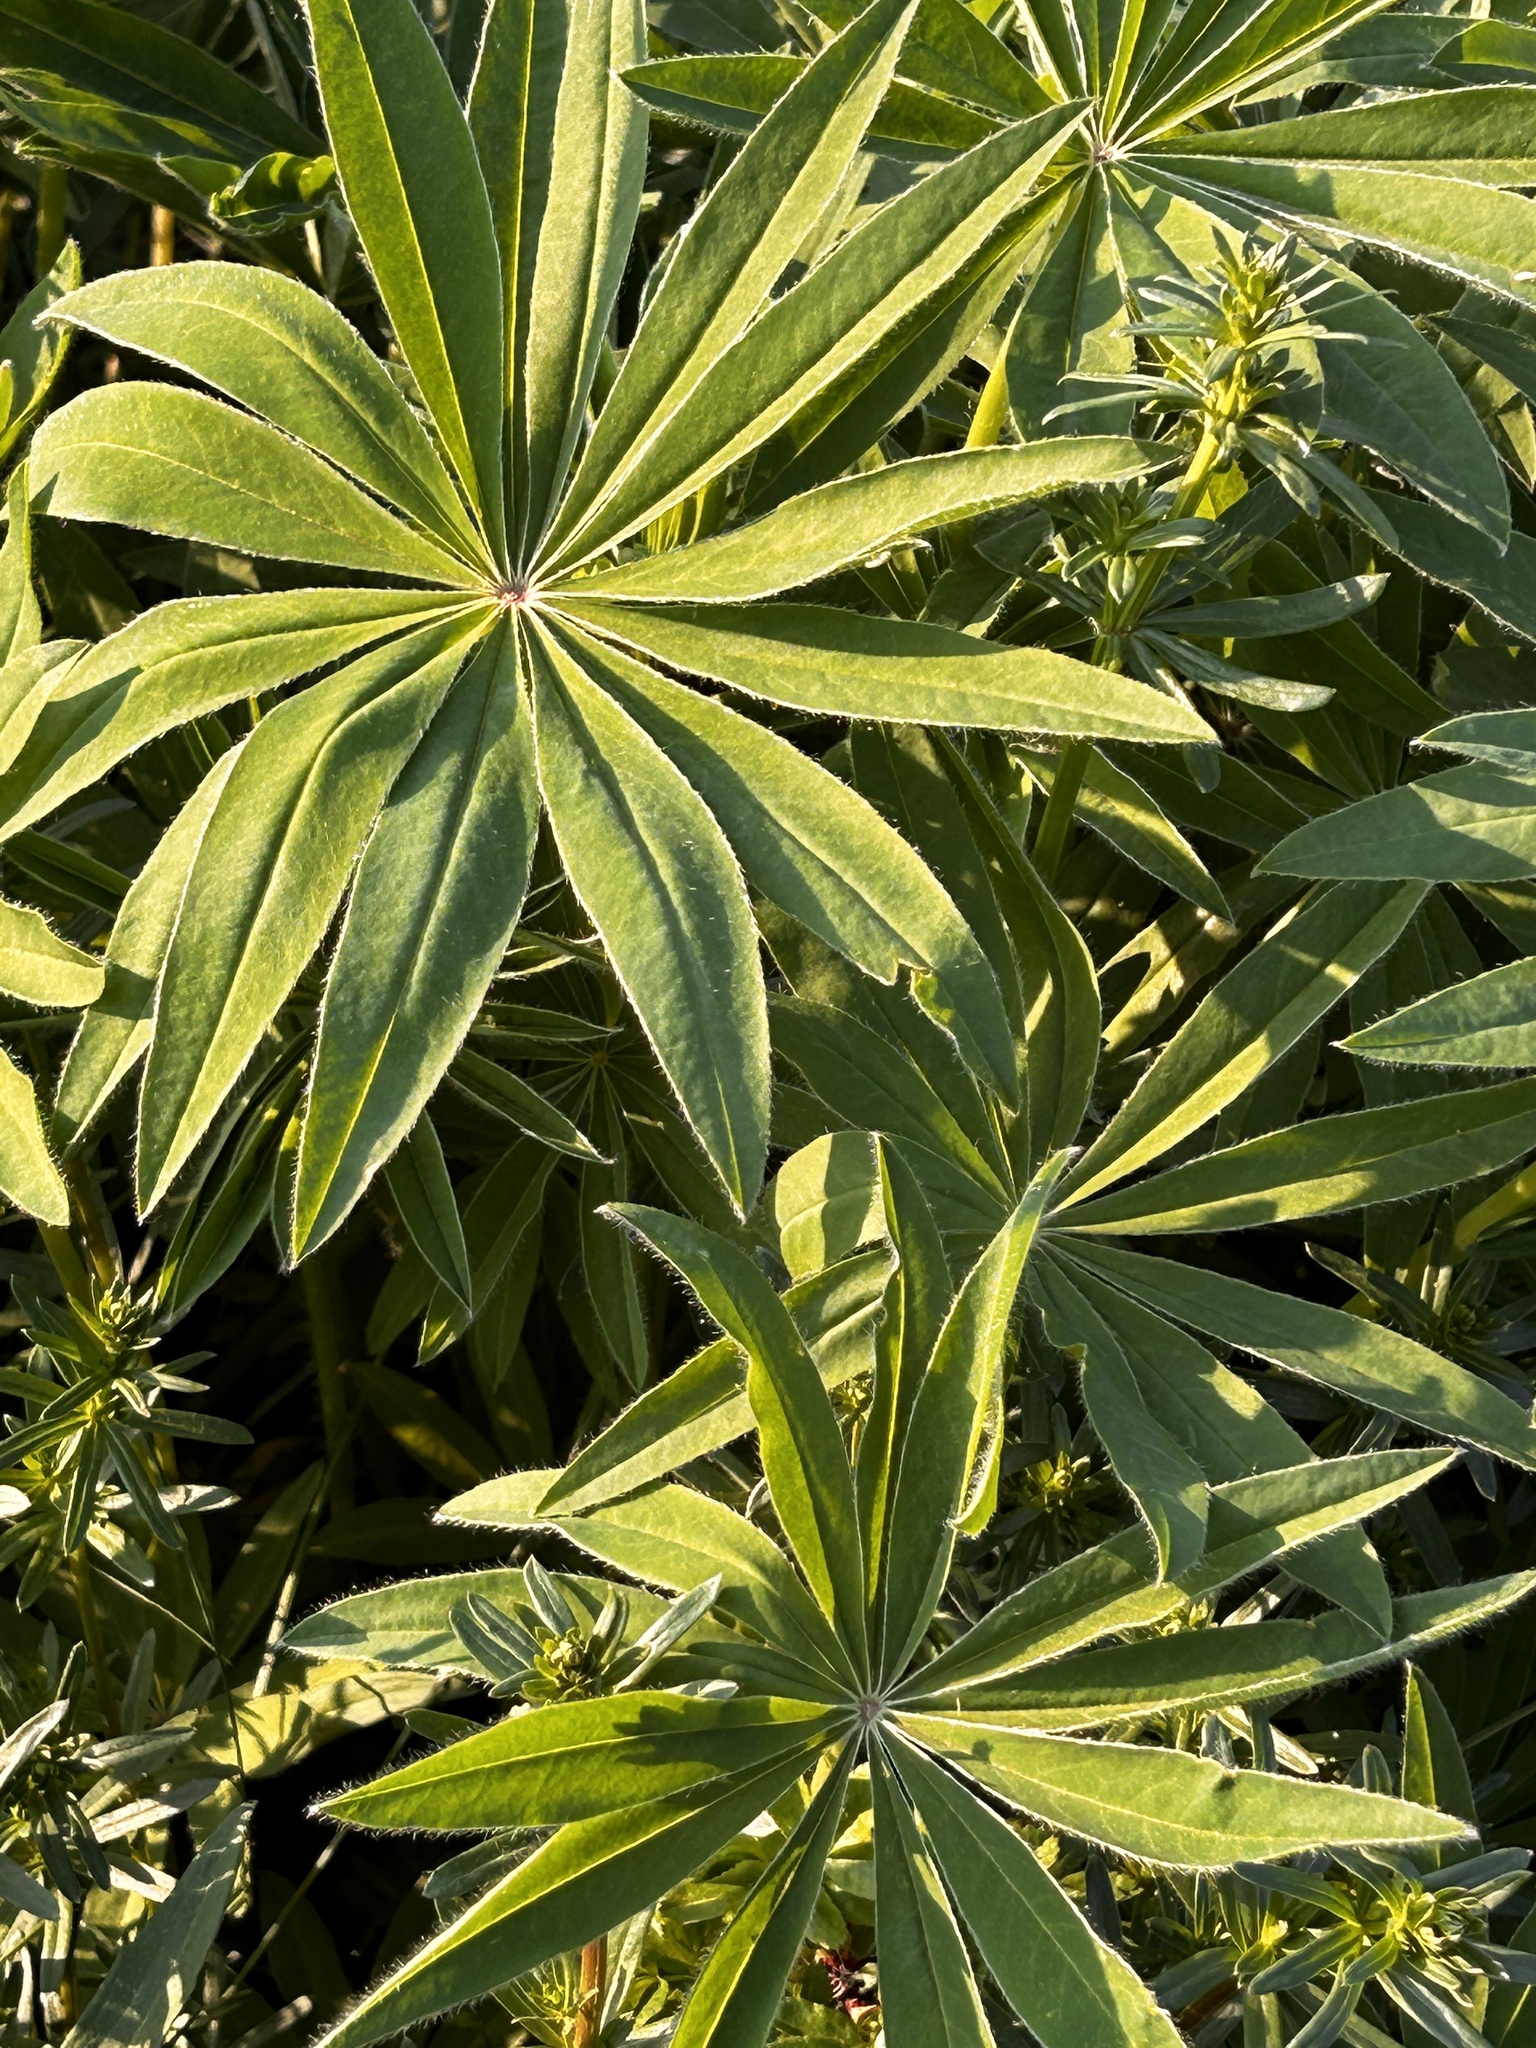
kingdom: Plantae
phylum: Tracheophyta
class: Magnoliopsida
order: Fabales
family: Fabaceae
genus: Lupinus
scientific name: Lupinus polyphyllus
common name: Garden lupin
